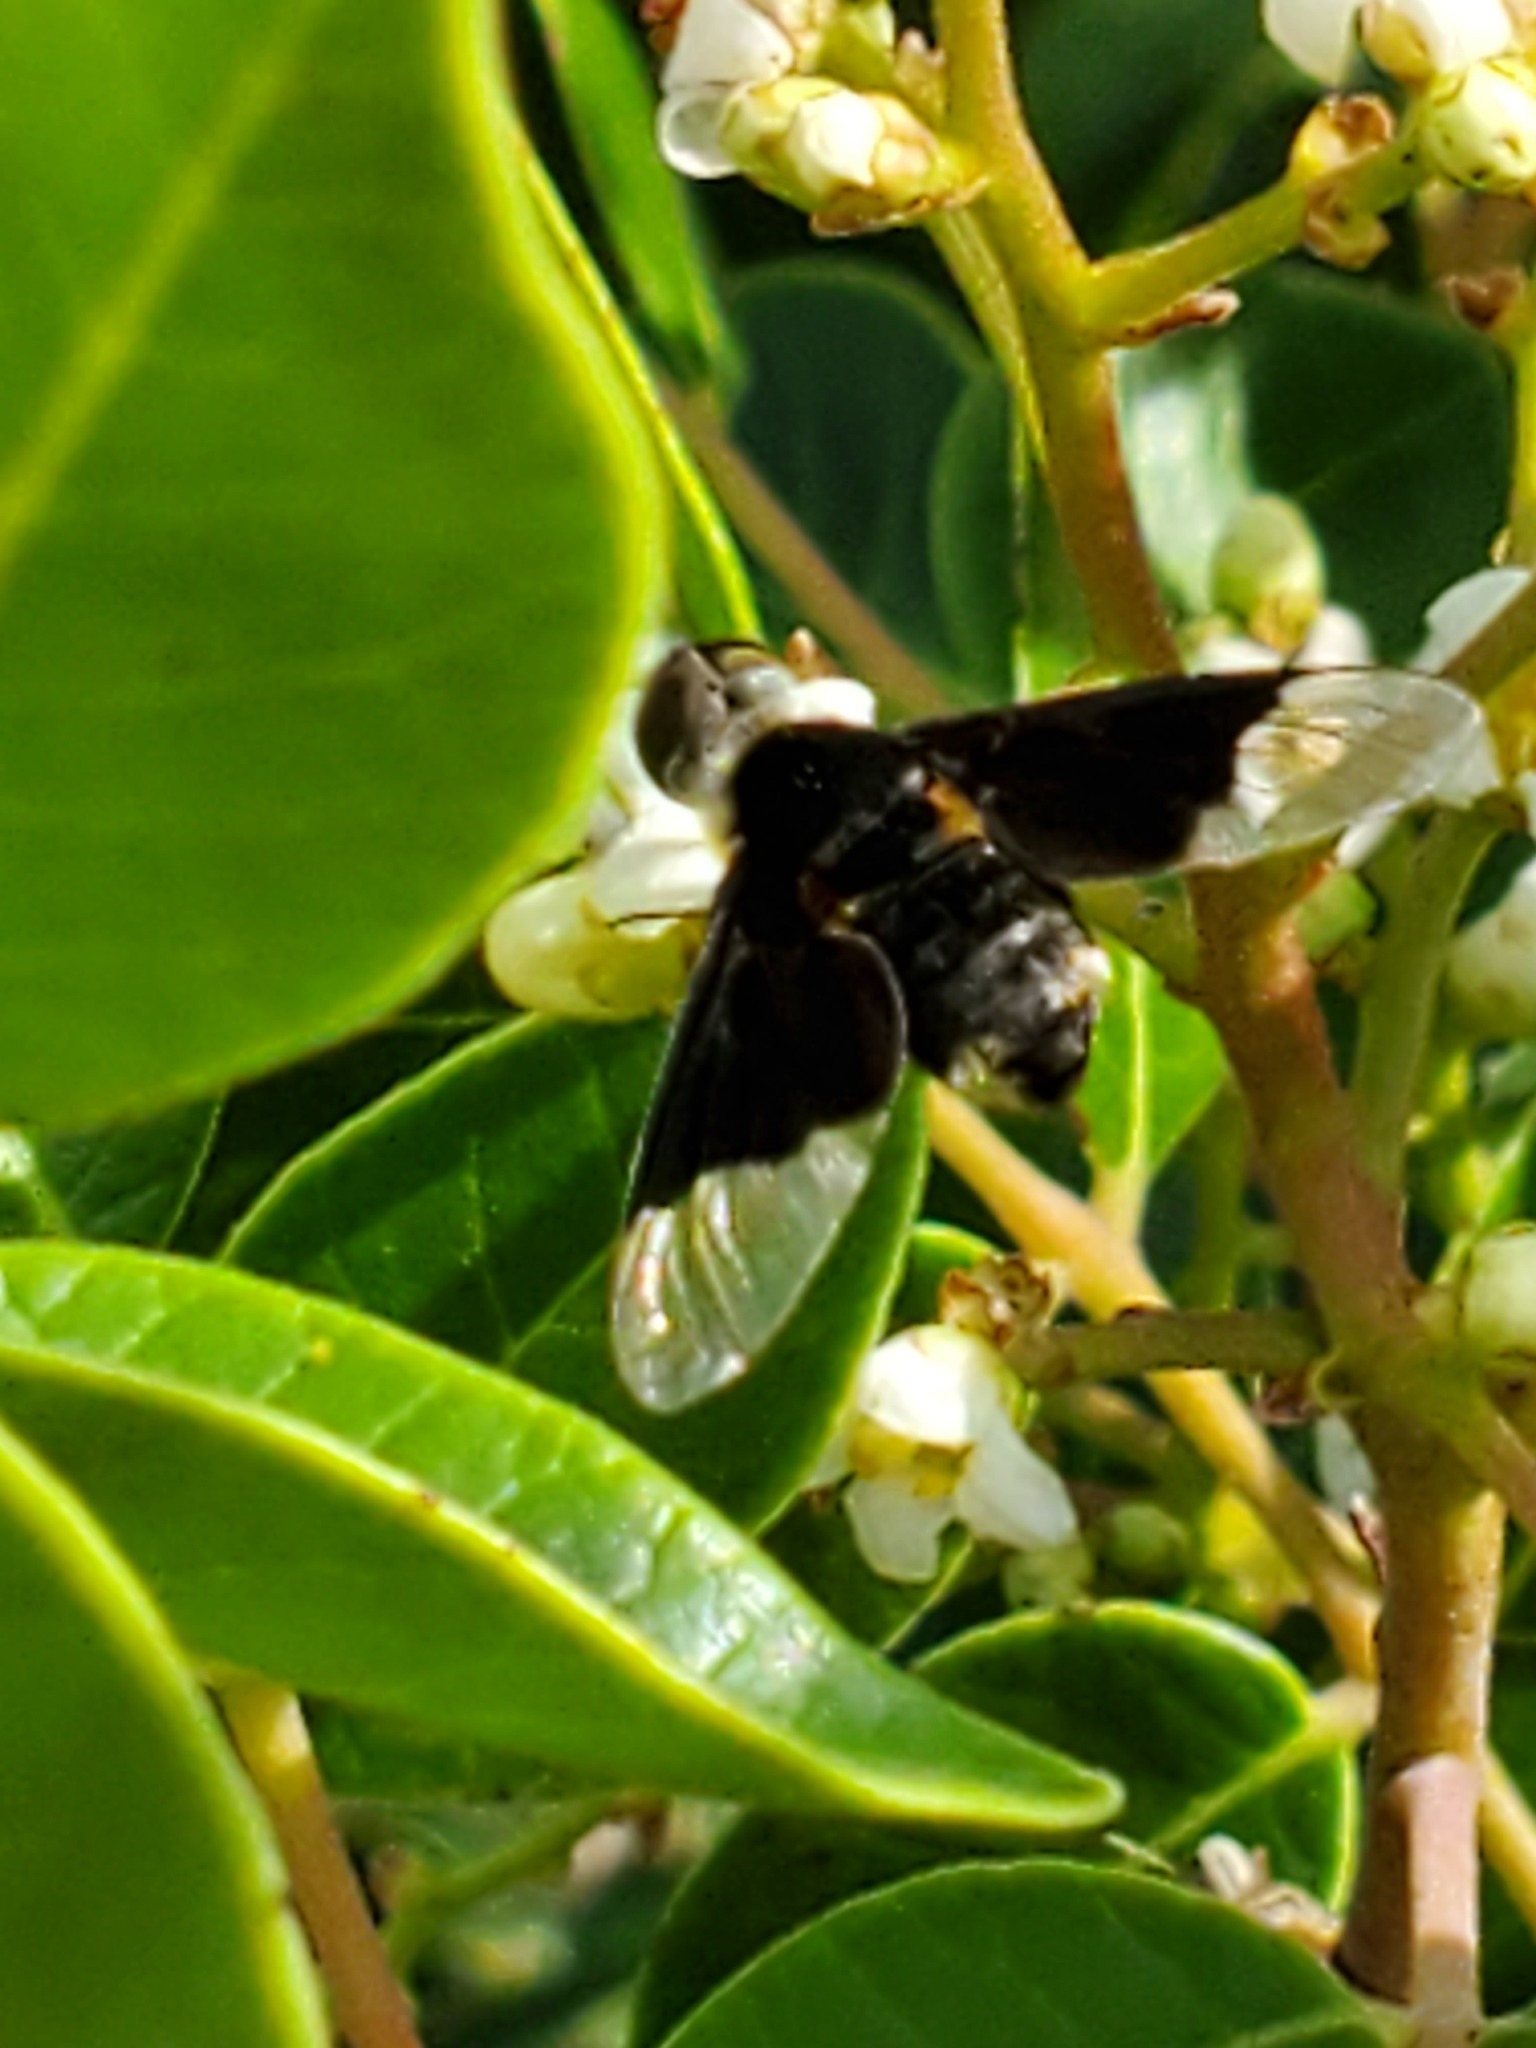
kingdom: Animalia
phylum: Arthropoda
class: Insecta
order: Diptera
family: Bombyliidae
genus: Ins
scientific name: Ins celeris
